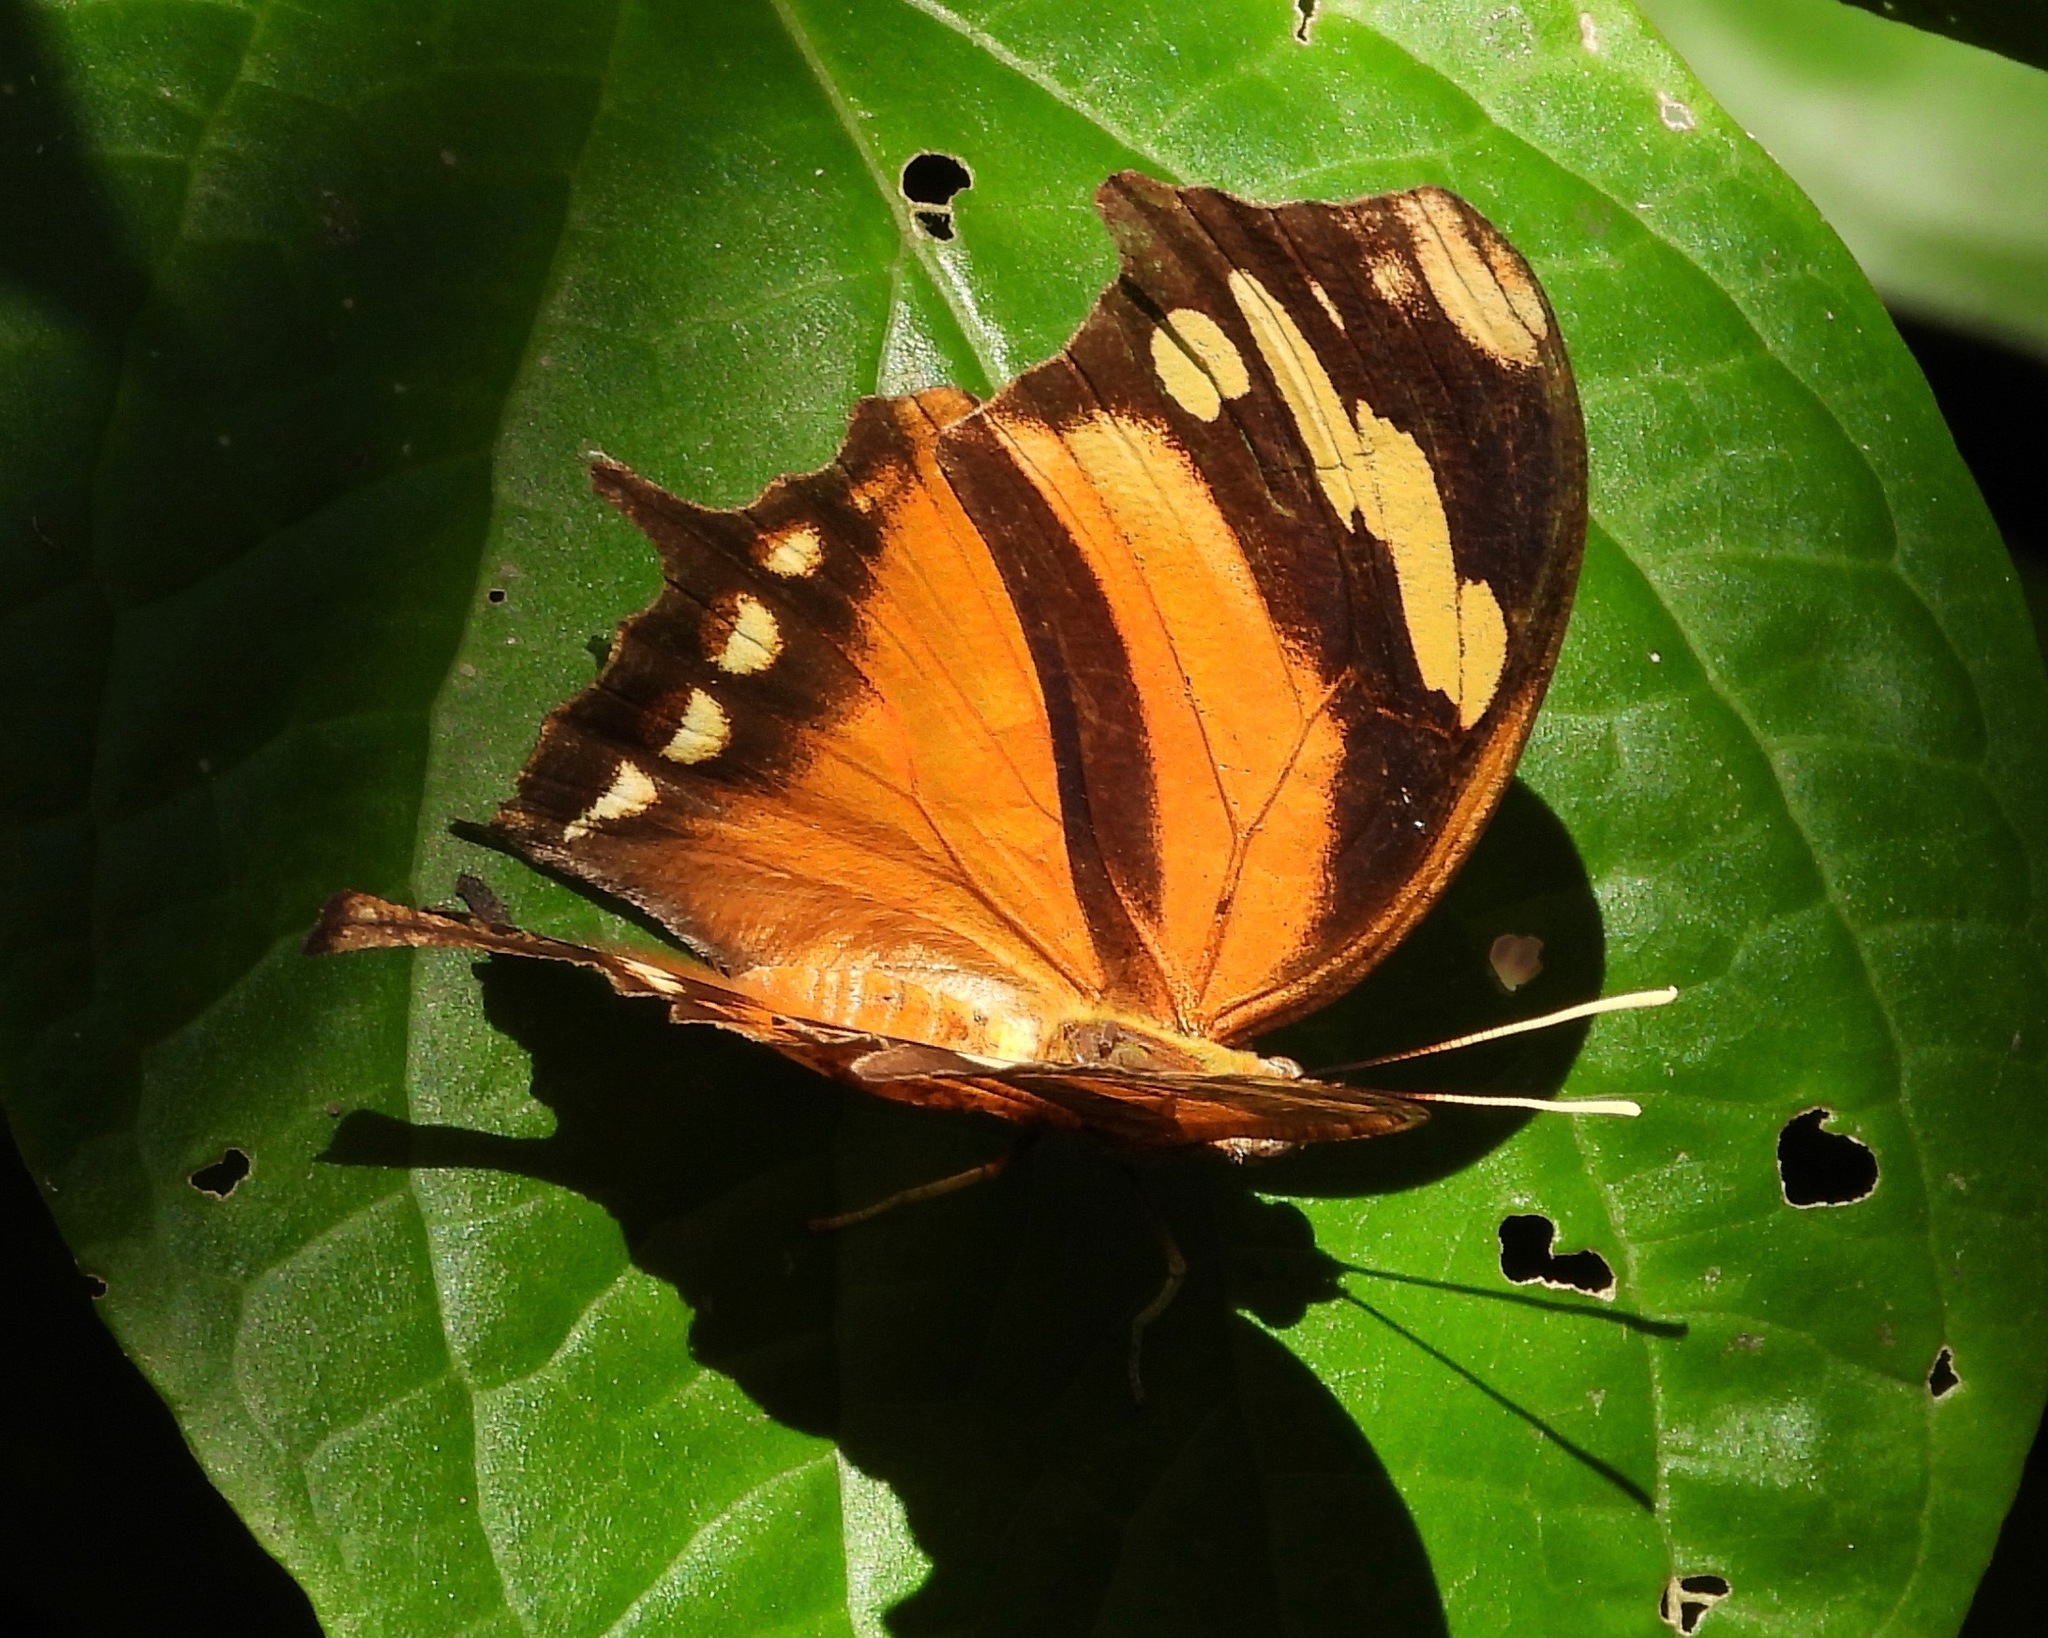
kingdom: Animalia
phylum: Arthropoda
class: Insecta
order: Lepidoptera
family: Nymphalidae
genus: Consul
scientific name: Consul fabius
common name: Tiger leafwing
